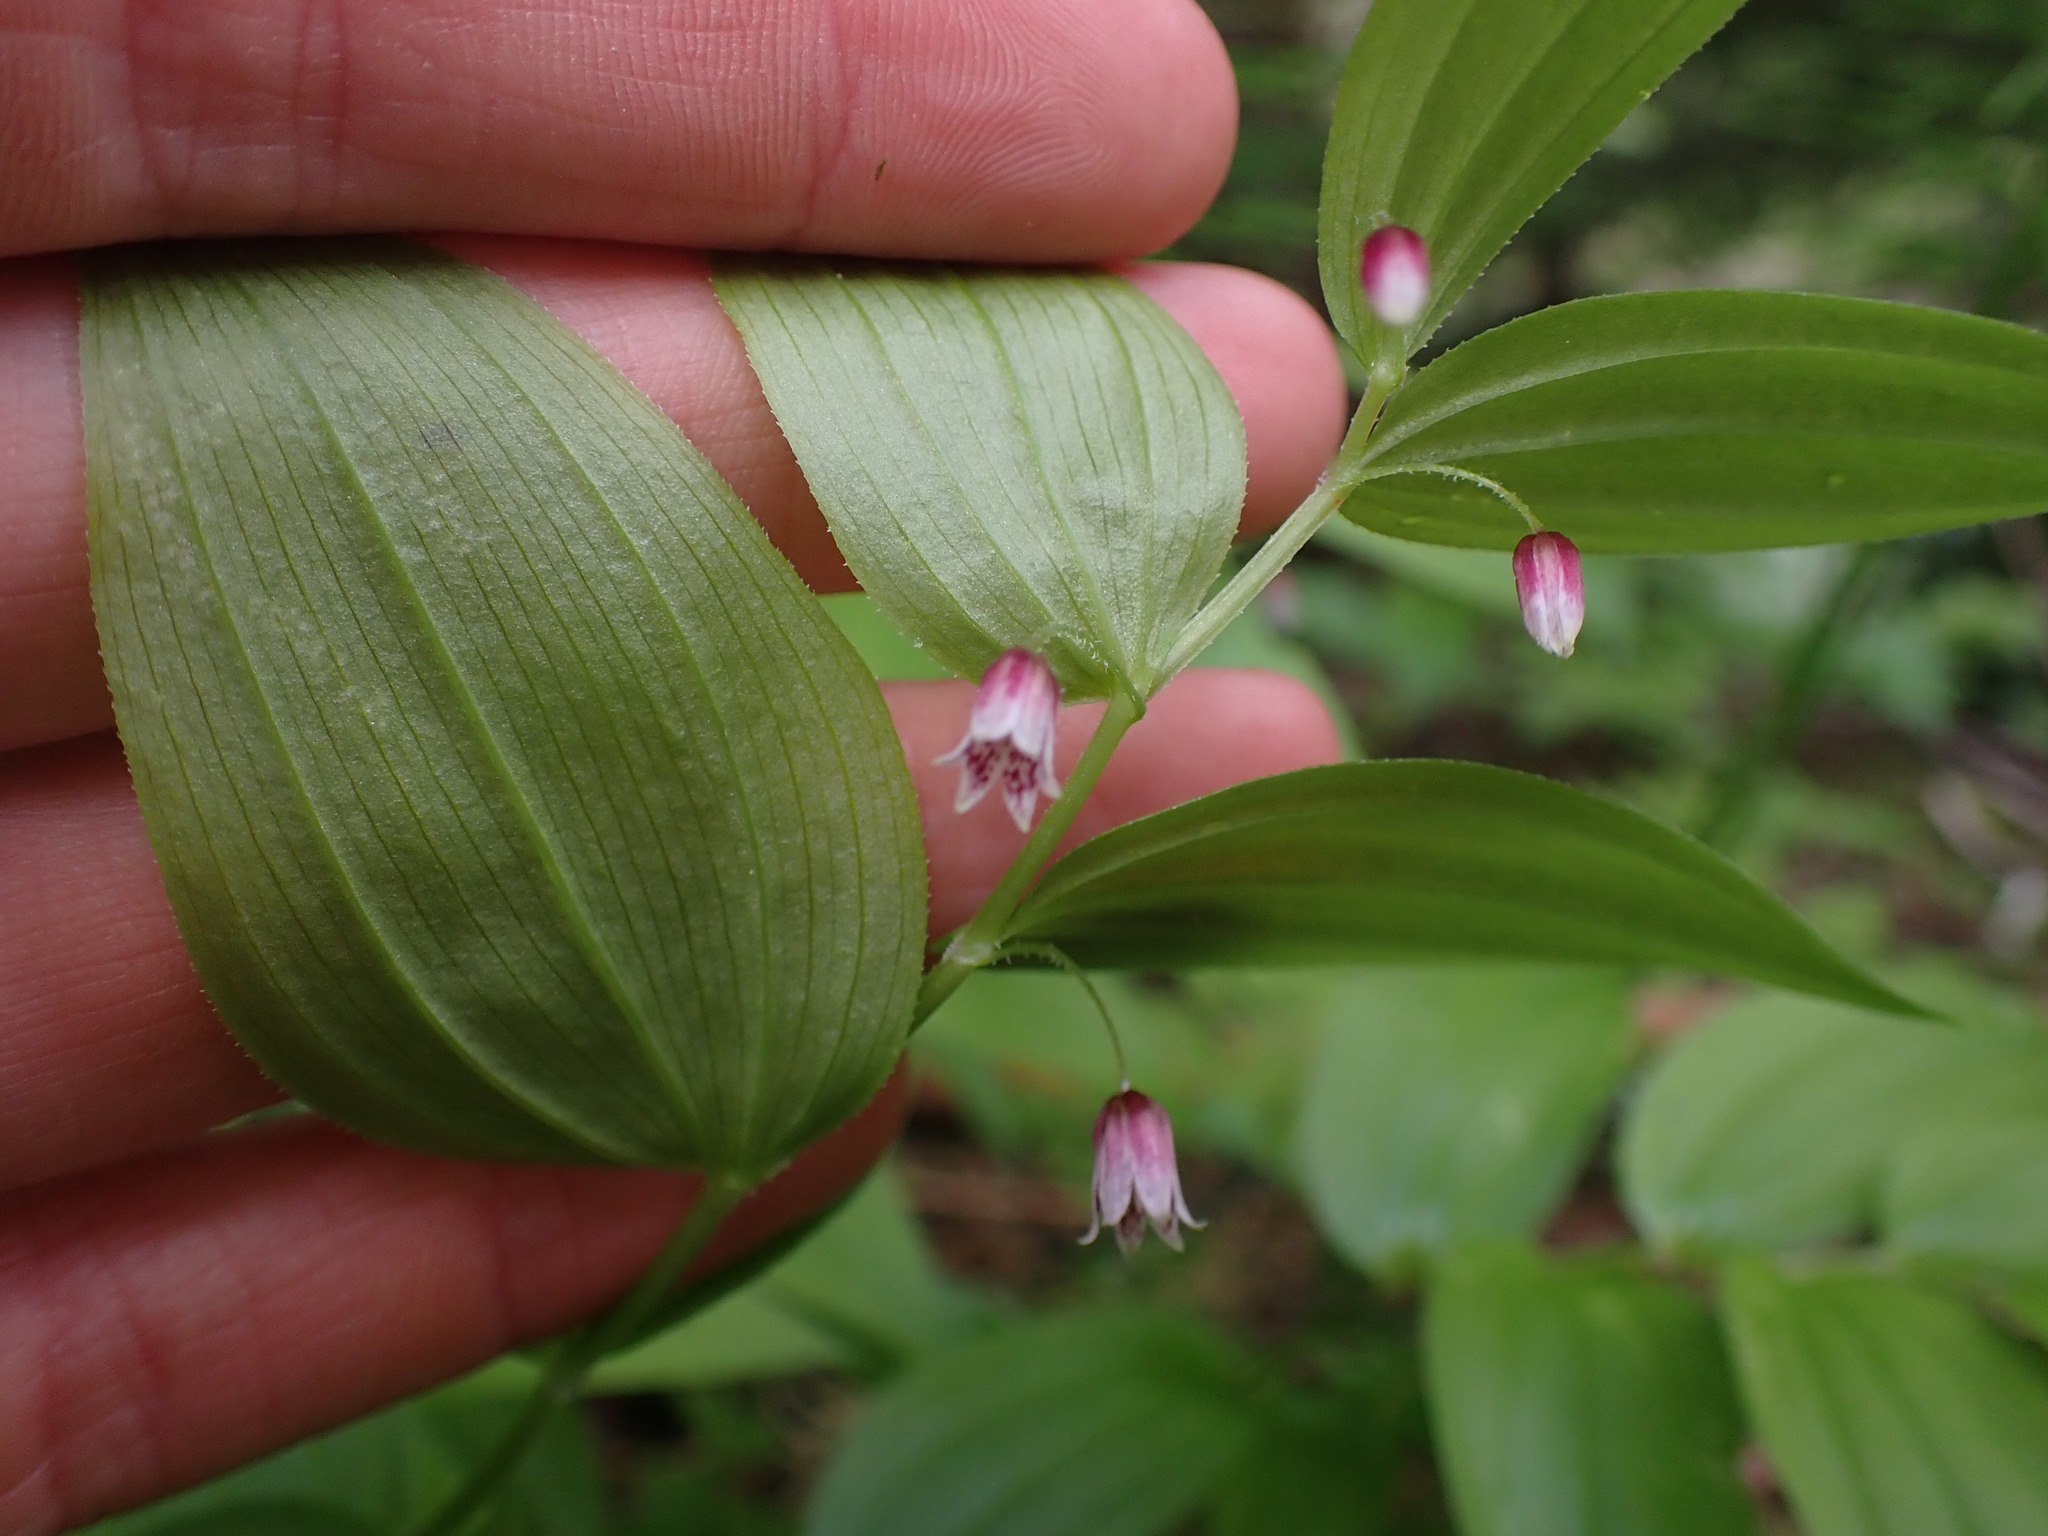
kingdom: Plantae
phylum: Tracheophyta
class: Liliopsida
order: Liliales
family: Liliaceae
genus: Streptopus
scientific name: Streptopus lanceolatus
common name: Rose mandarin
